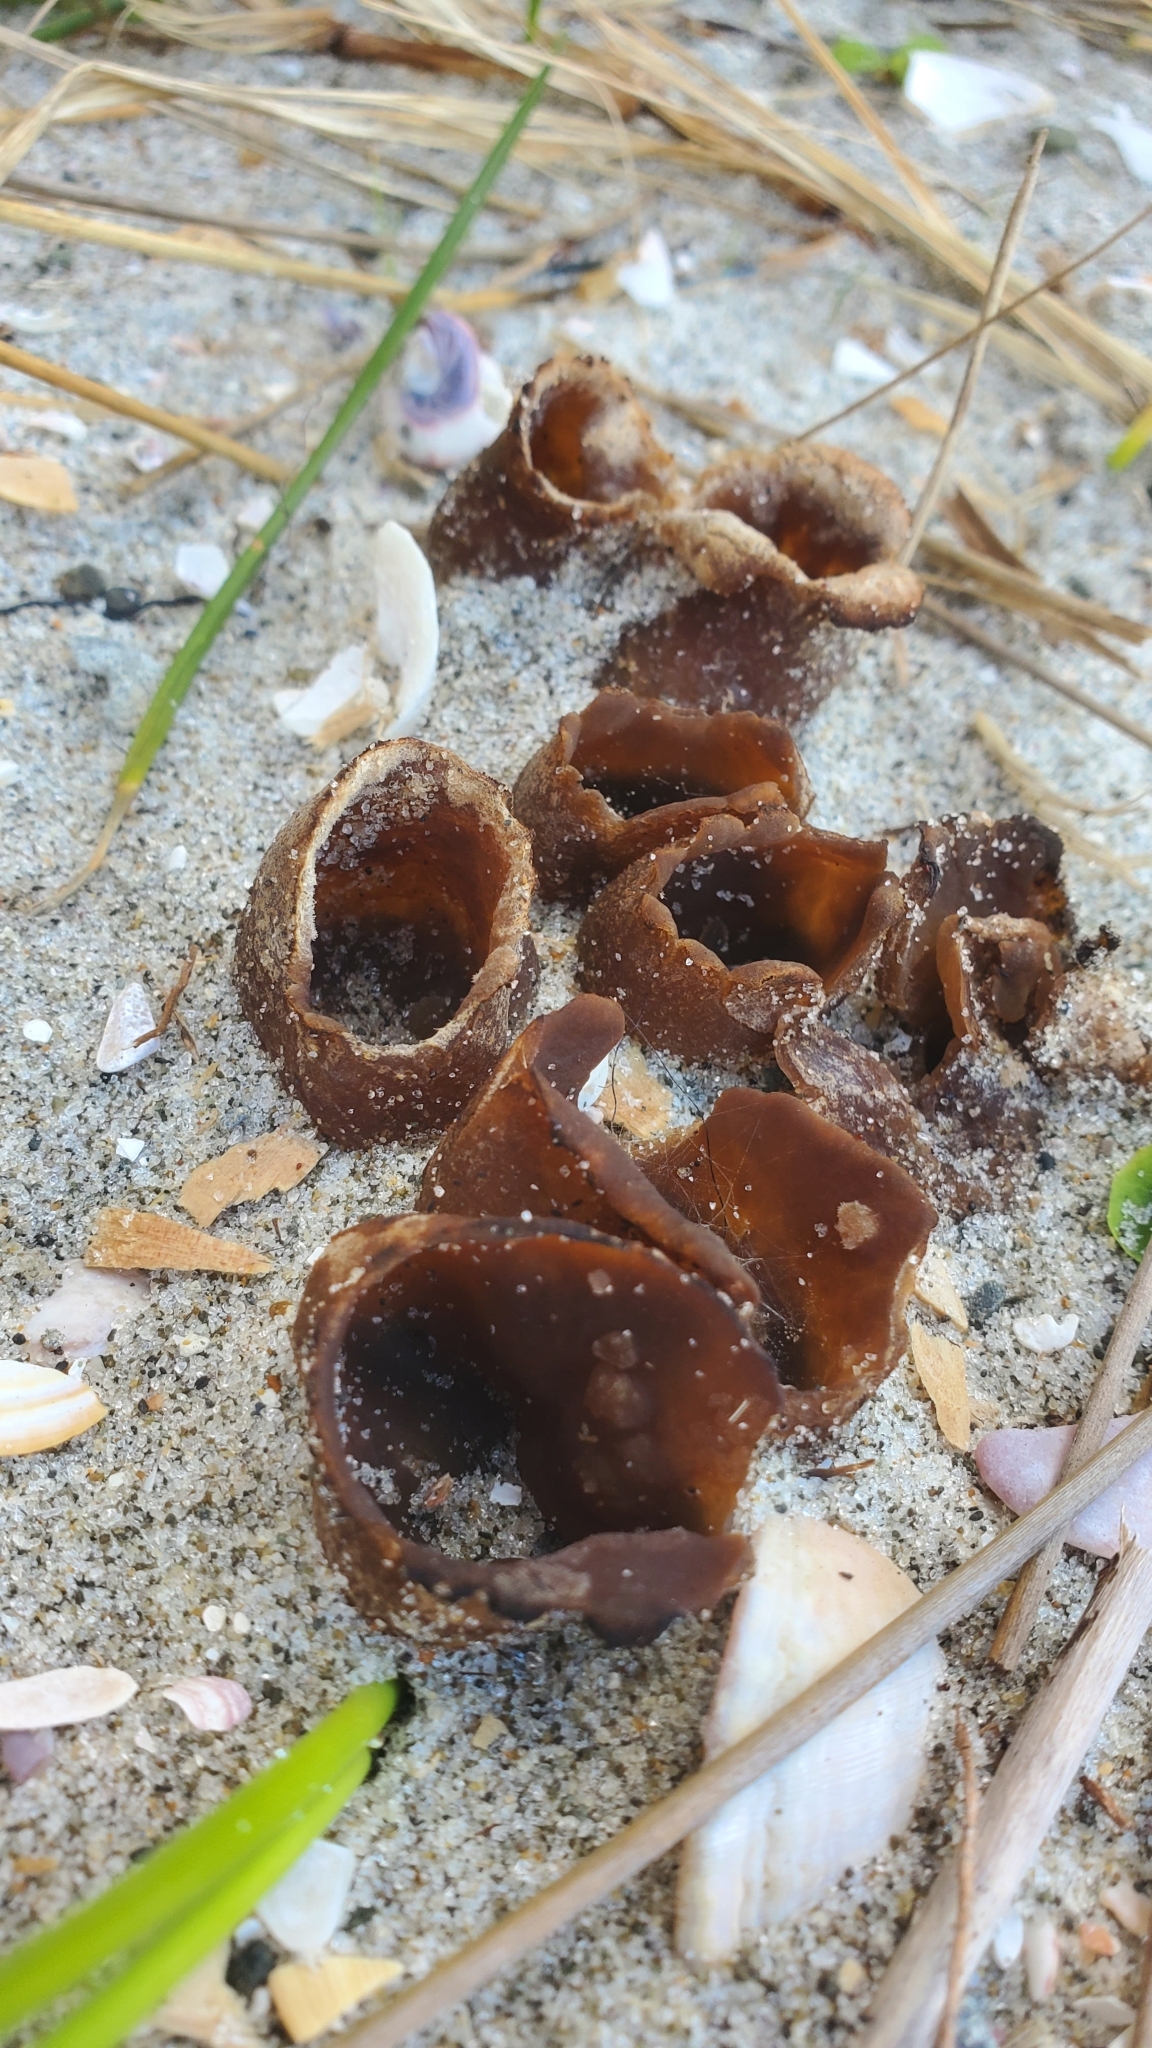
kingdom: Fungi
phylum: Ascomycota
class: Pezizomycetes
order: Pezizales
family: Pezizaceae
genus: Peziza
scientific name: Peziza oceanica
